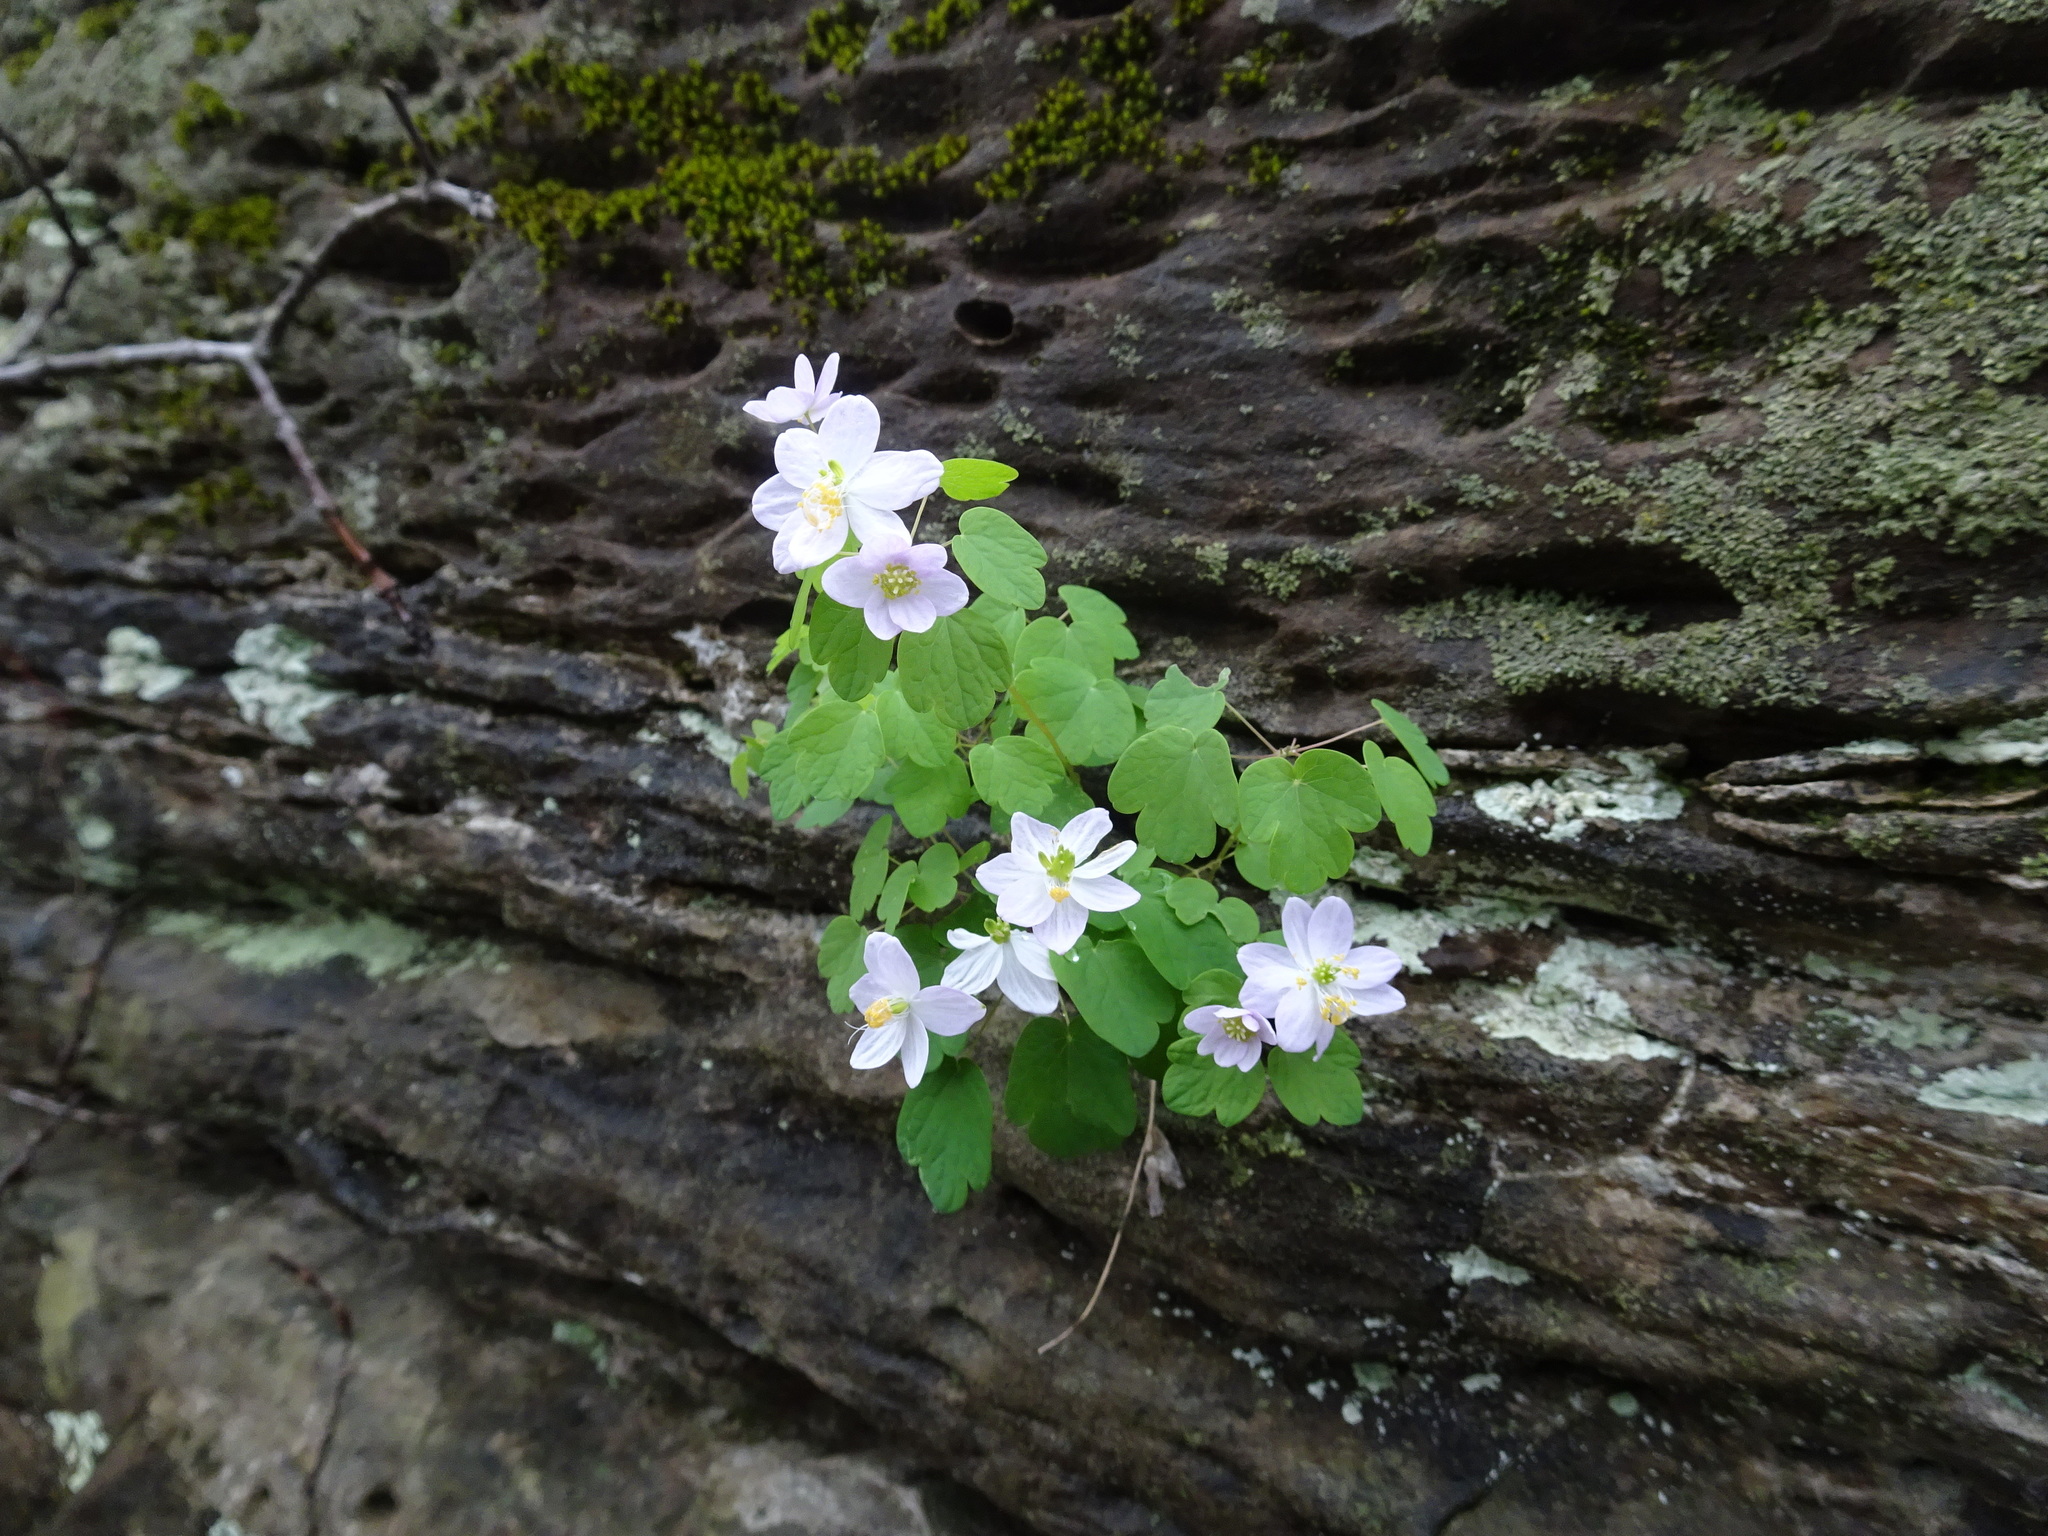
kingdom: Plantae
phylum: Tracheophyta
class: Magnoliopsida
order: Ranunculales
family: Ranunculaceae
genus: Thalictrum
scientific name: Thalictrum thalictroides
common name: Rue-anemone
